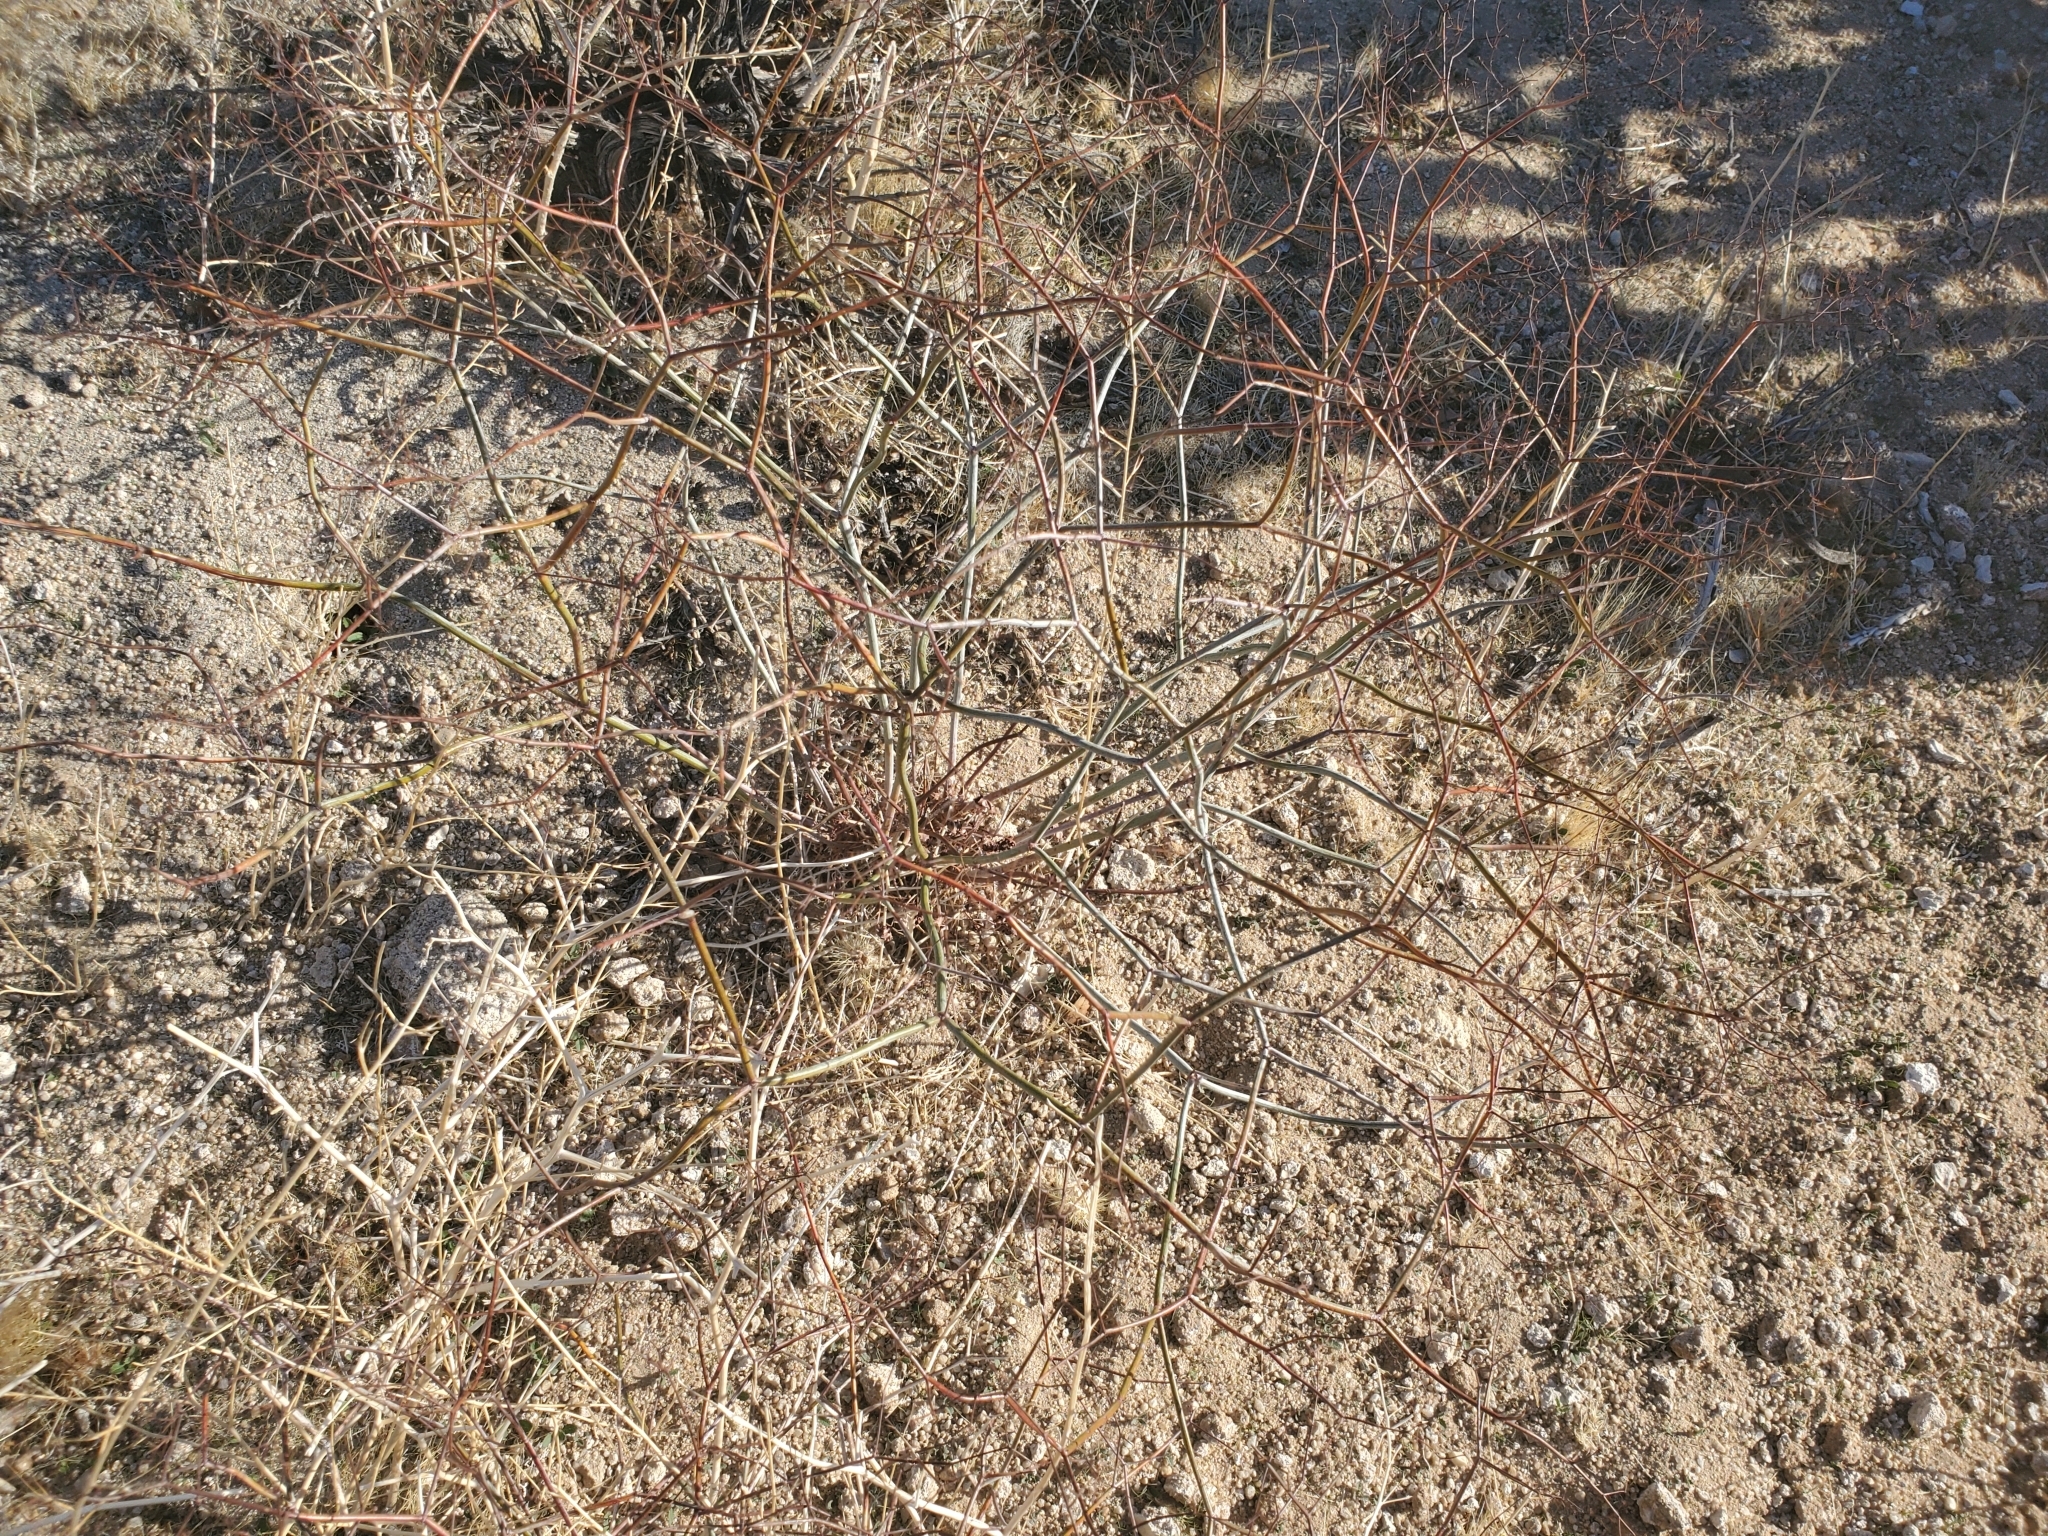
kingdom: Plantae
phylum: Tracheophyta
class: Magnoliopsida
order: Caryophyllales
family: Polygonaceae
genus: Eriogonum
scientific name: Eriogonum inflatum
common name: Desert trumpet
